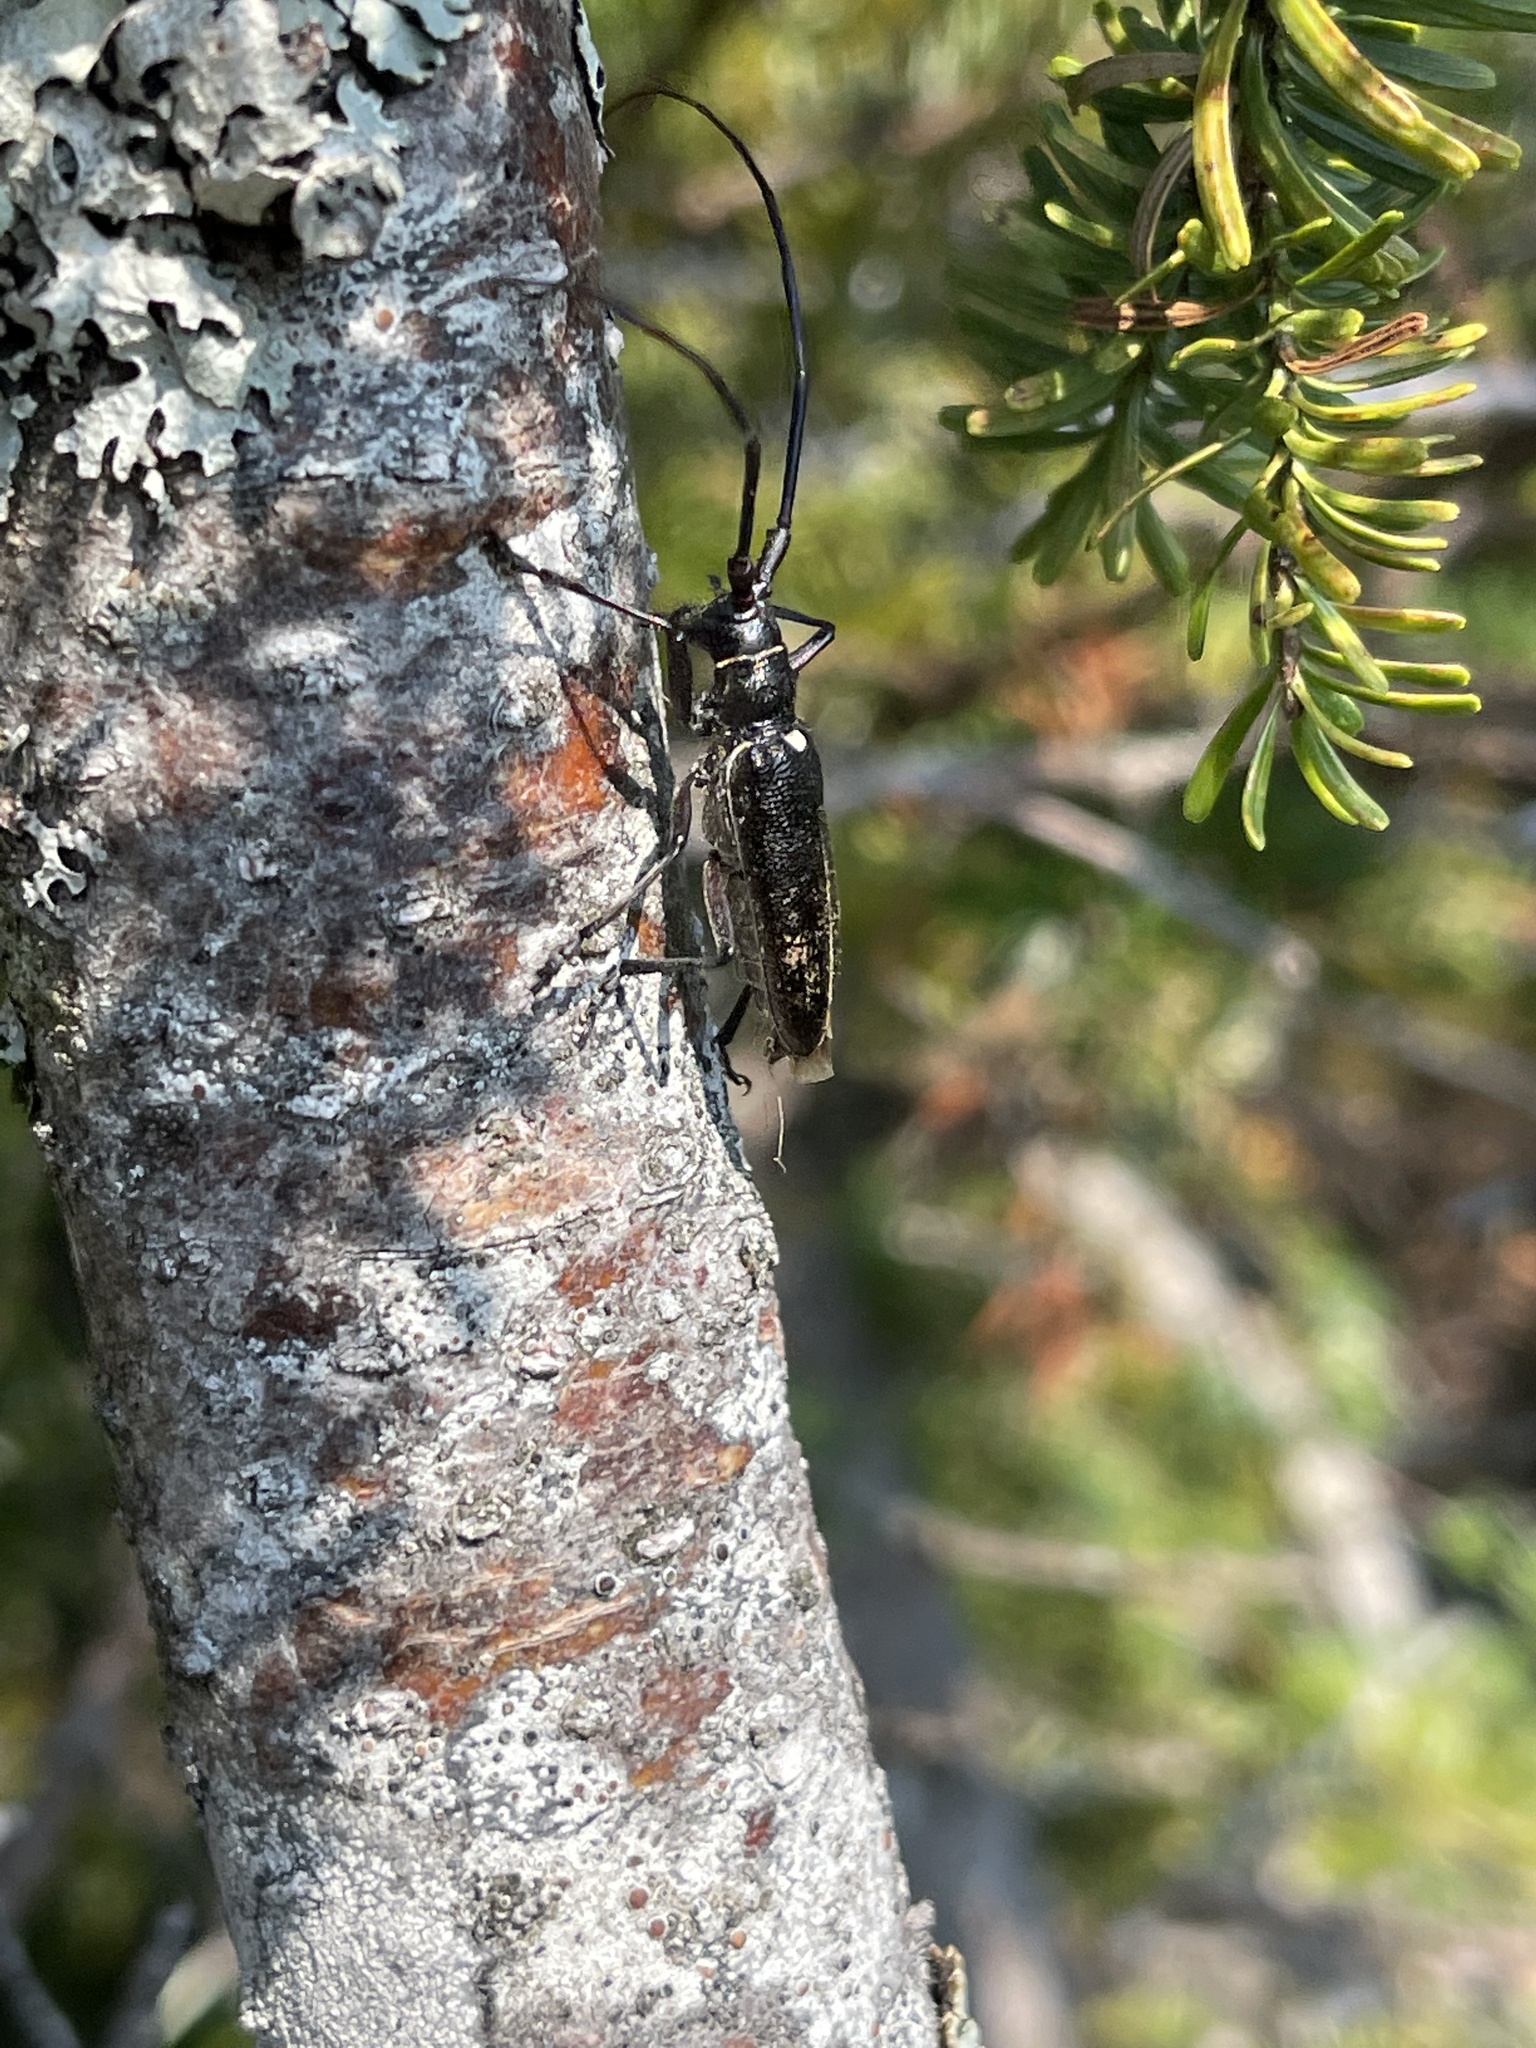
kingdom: Animalia
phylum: Arthropoda
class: Insecta
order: Coleoptera
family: Cerambycidae
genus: Monochamus
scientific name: Monochamus scutellatus
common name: White-spotted sawyer beetle
